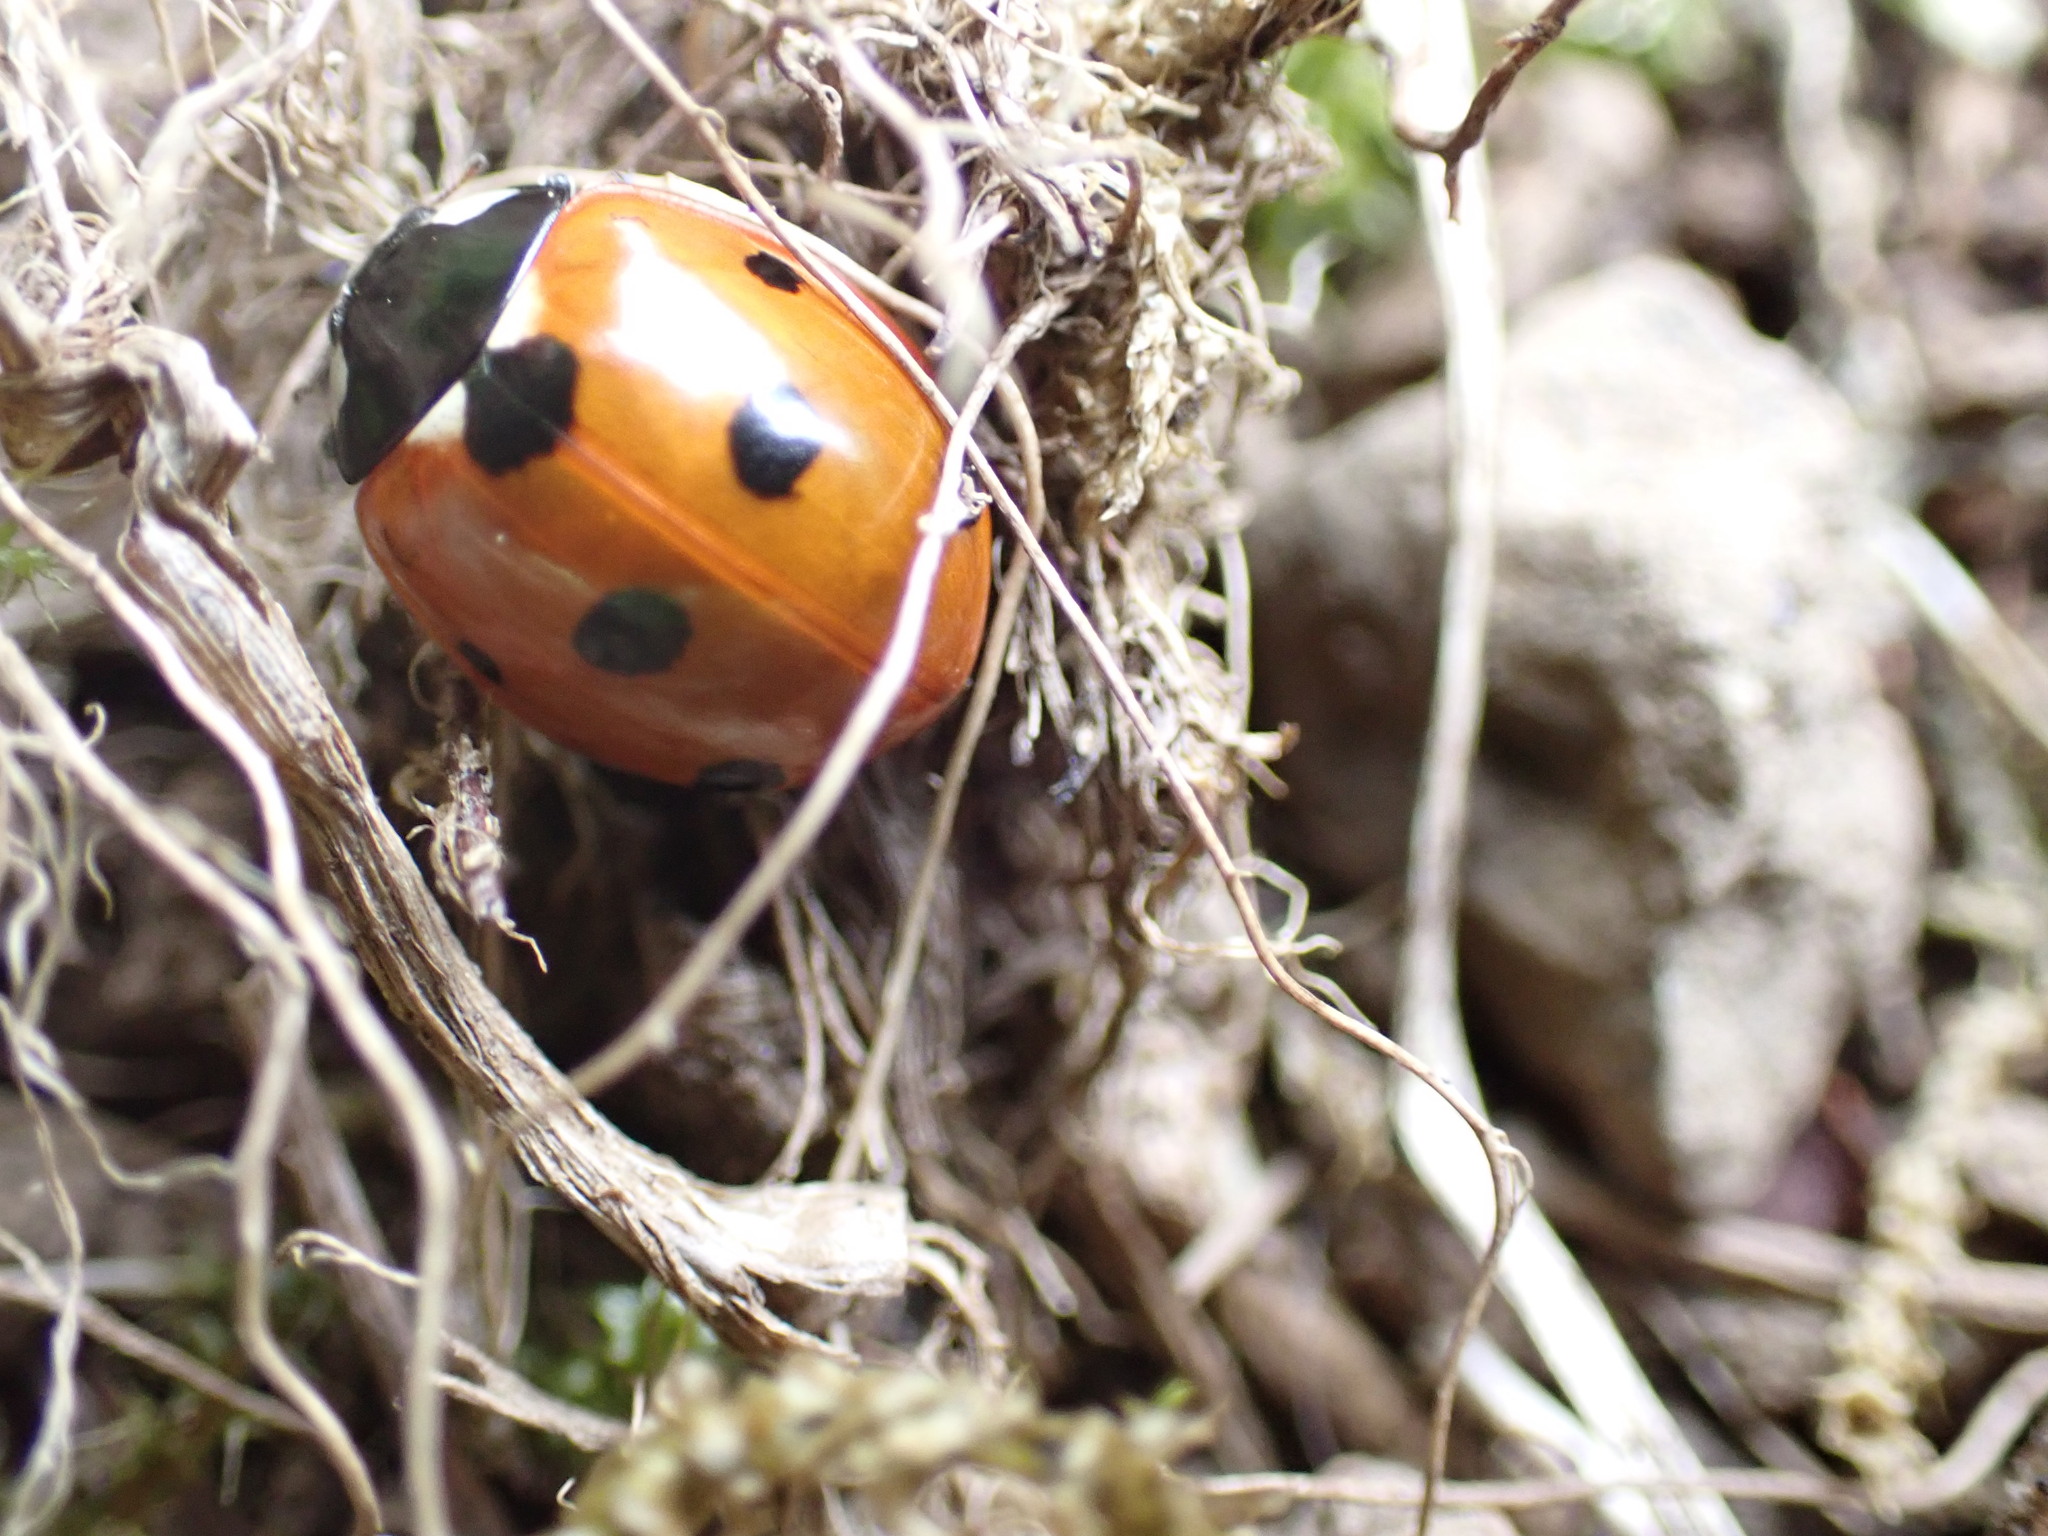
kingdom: Animalia
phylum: Arthropoda
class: Insecta
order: Coleoptera
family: Coccinellidae
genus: Coccinella
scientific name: Coccinella septempunctata
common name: Sevenspotted lady beetle
